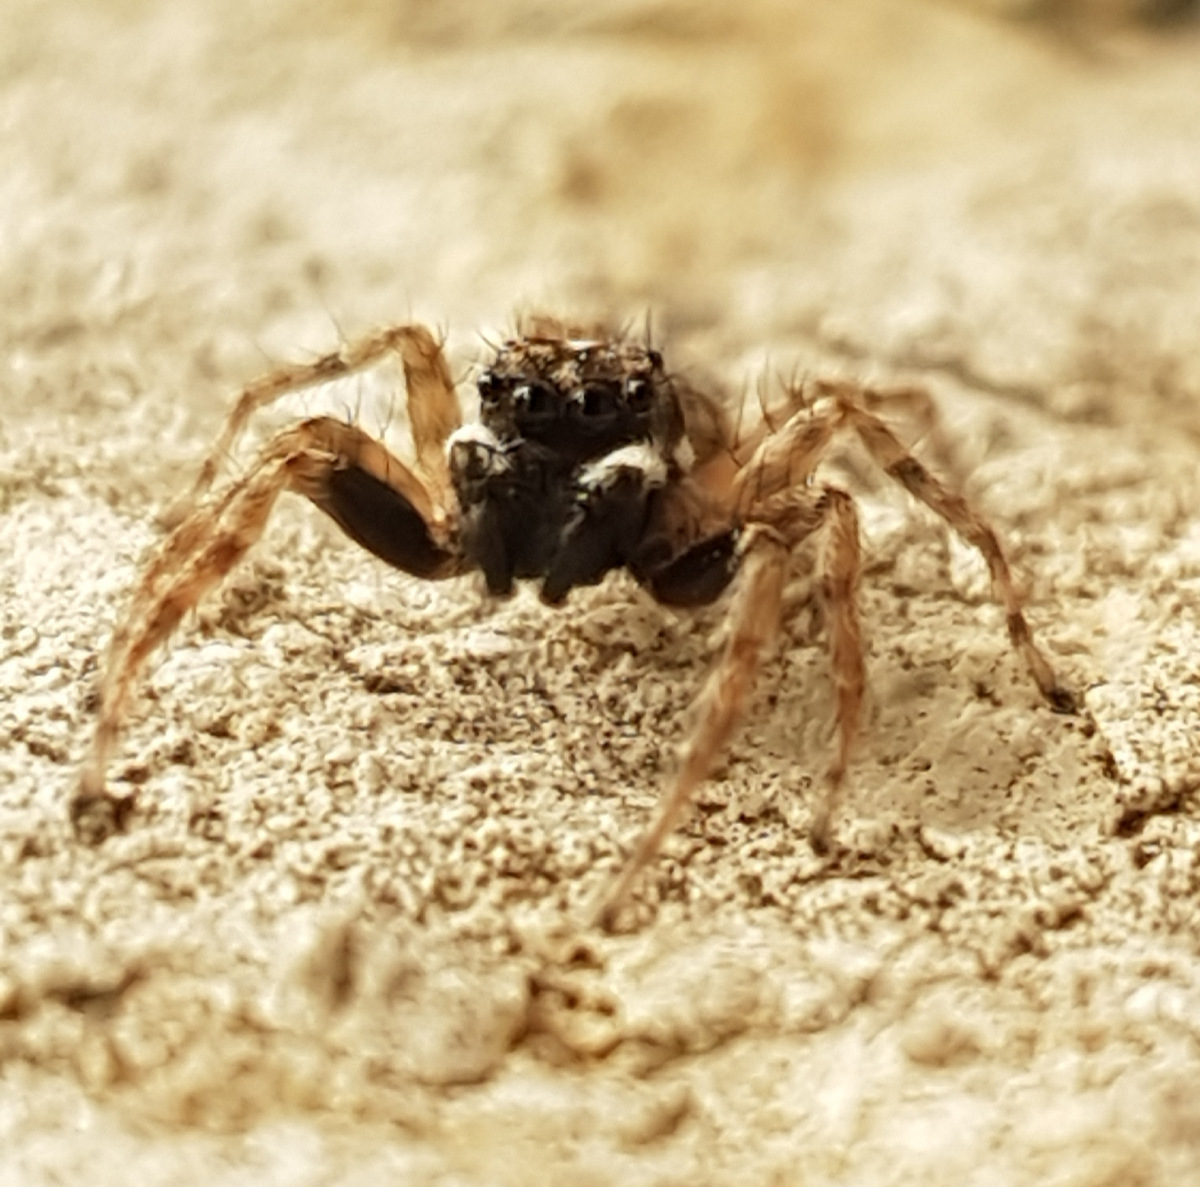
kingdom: Animalia
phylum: Arthropoda
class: Arachnida
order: Araneae
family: Salticidae
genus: Menemerus
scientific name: Menemerus semilimbatus
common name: Jumping spider
